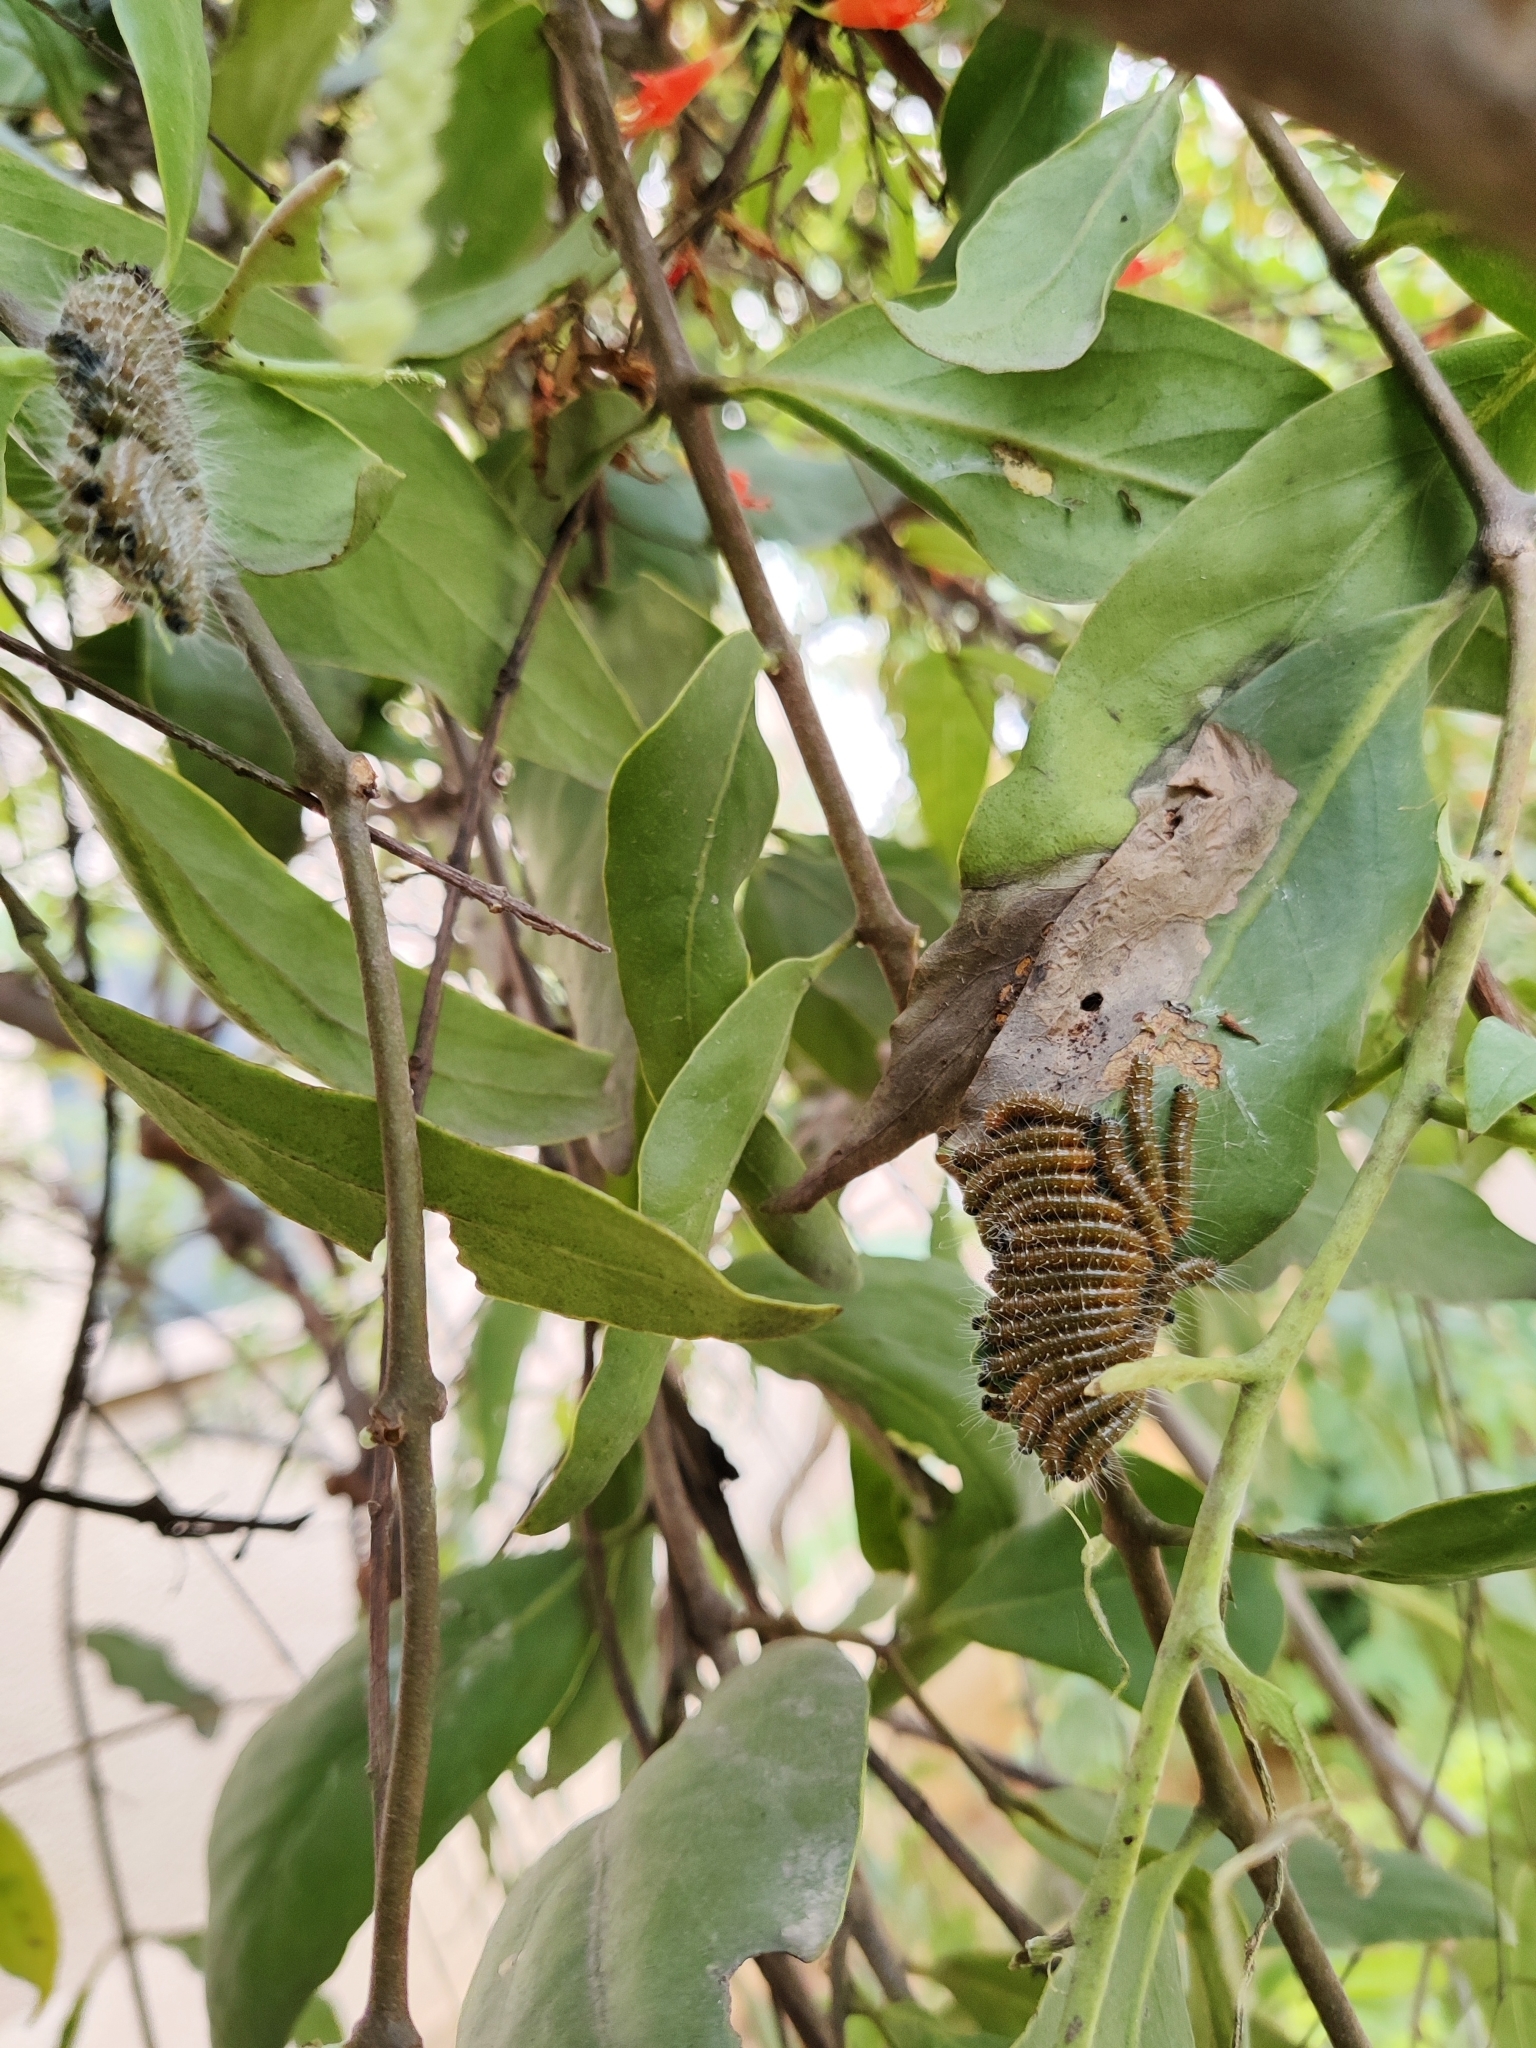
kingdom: Animalia
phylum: Arthropoda
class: Insecta
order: Lepidoptera
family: Pieridae
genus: Delias
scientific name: Delias eucharis
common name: Common jezebel
